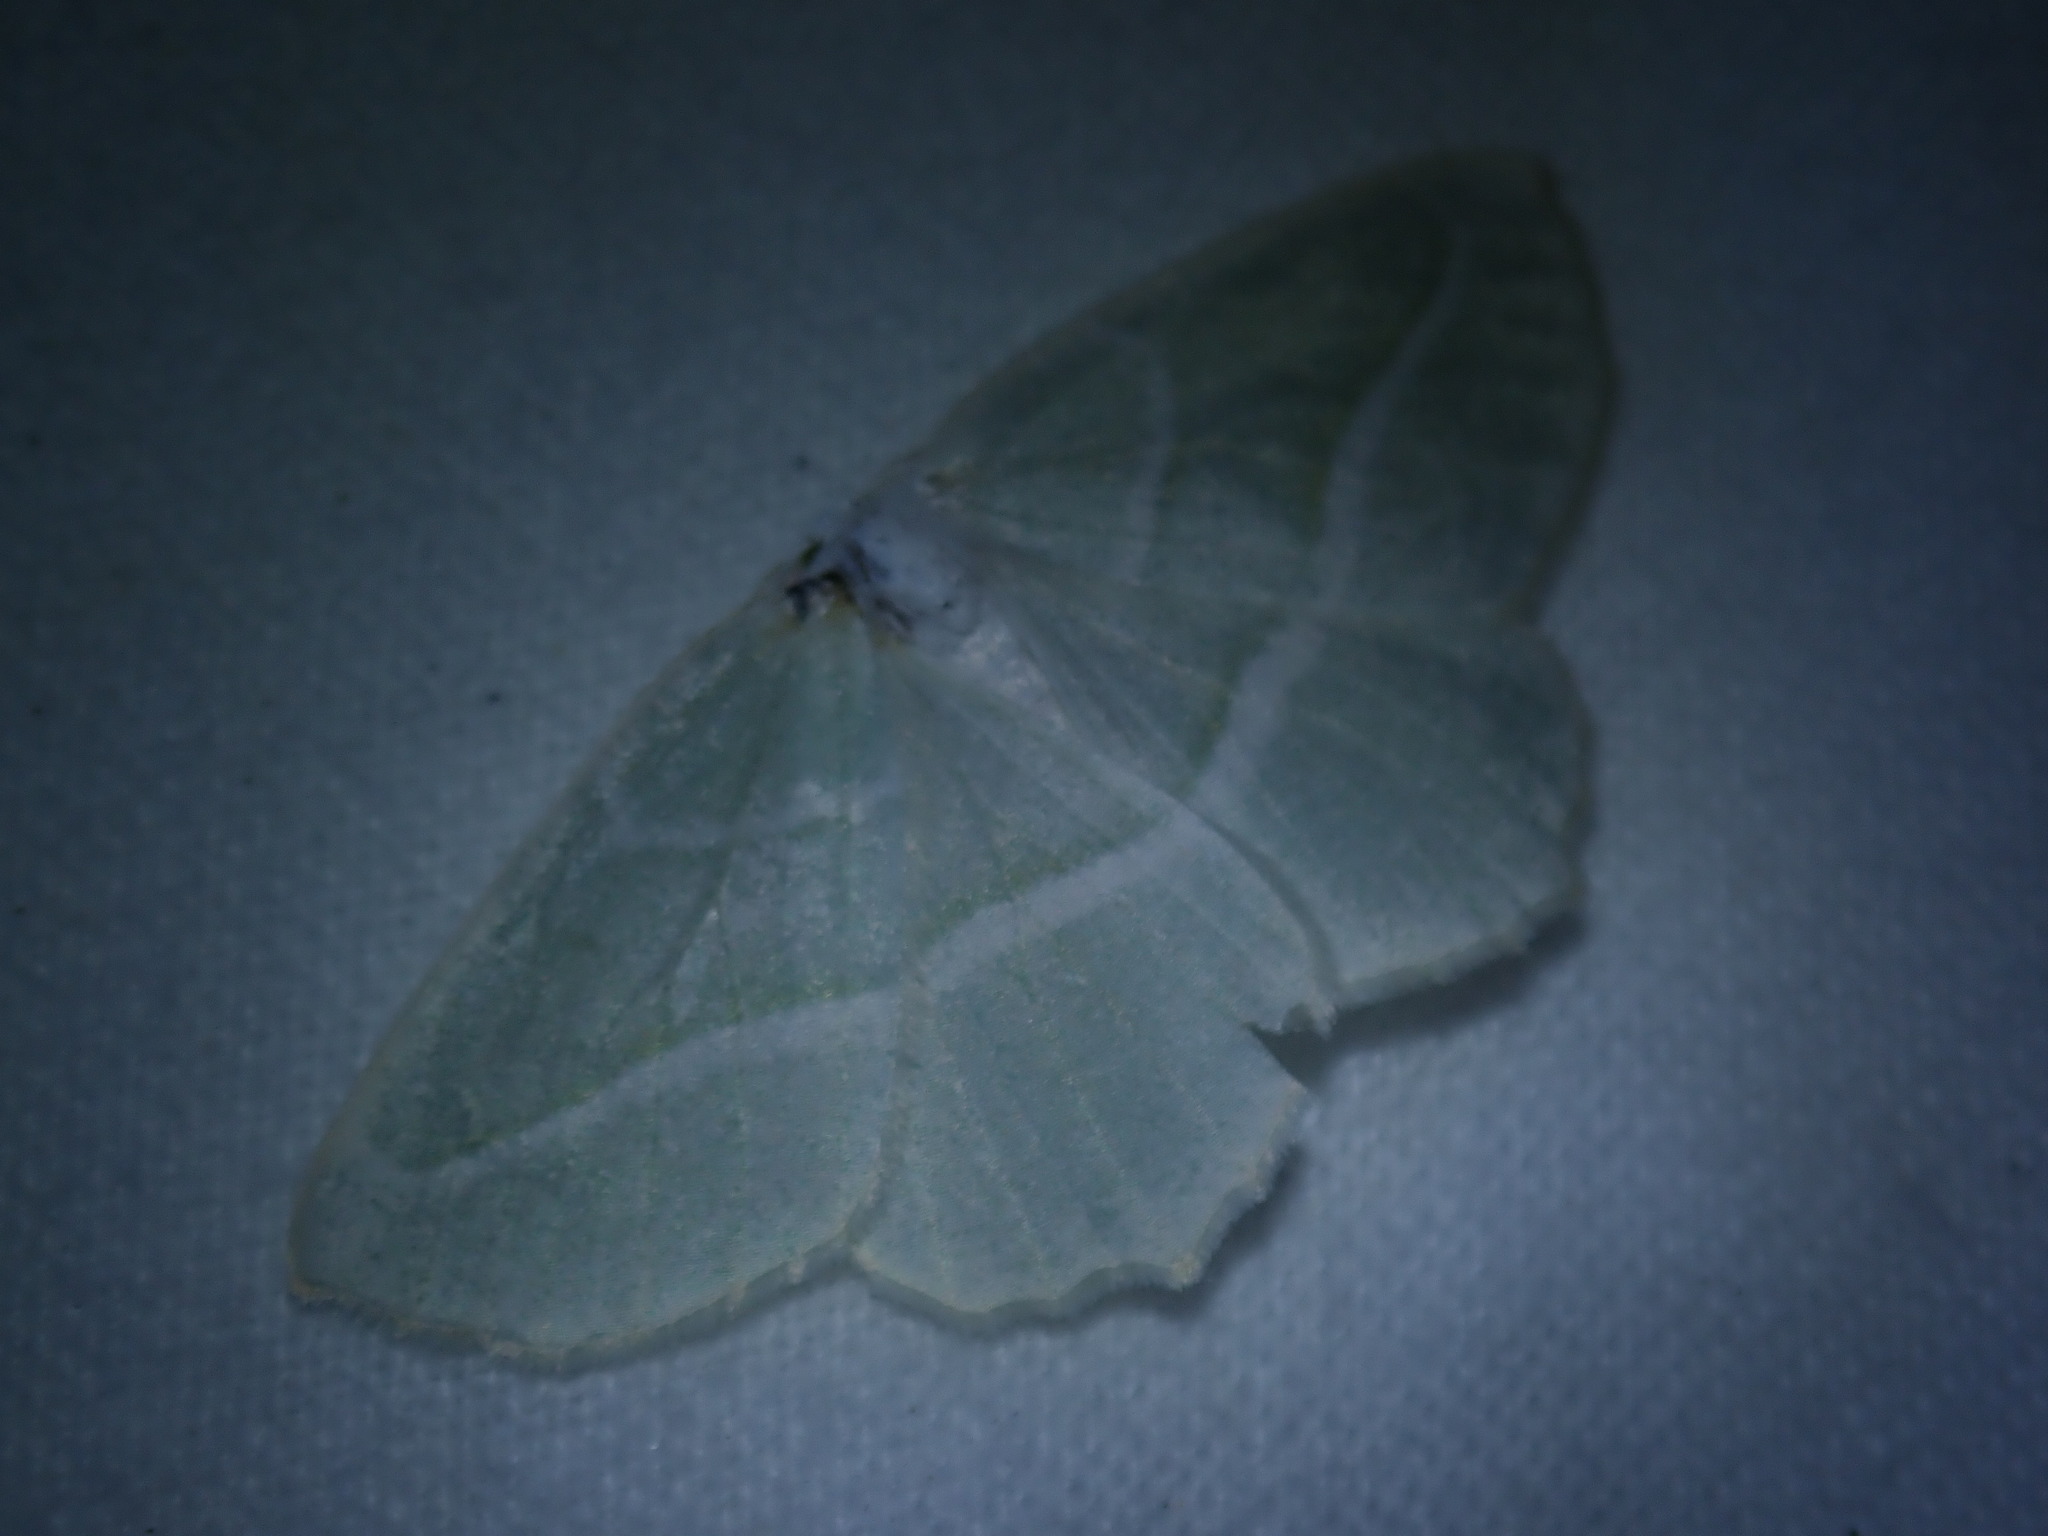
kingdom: Animalia
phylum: Arthropoda
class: Insecta
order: Lepidoptera
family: Geometridae
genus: Campaea
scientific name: Campaea perlata
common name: Fringed looper
